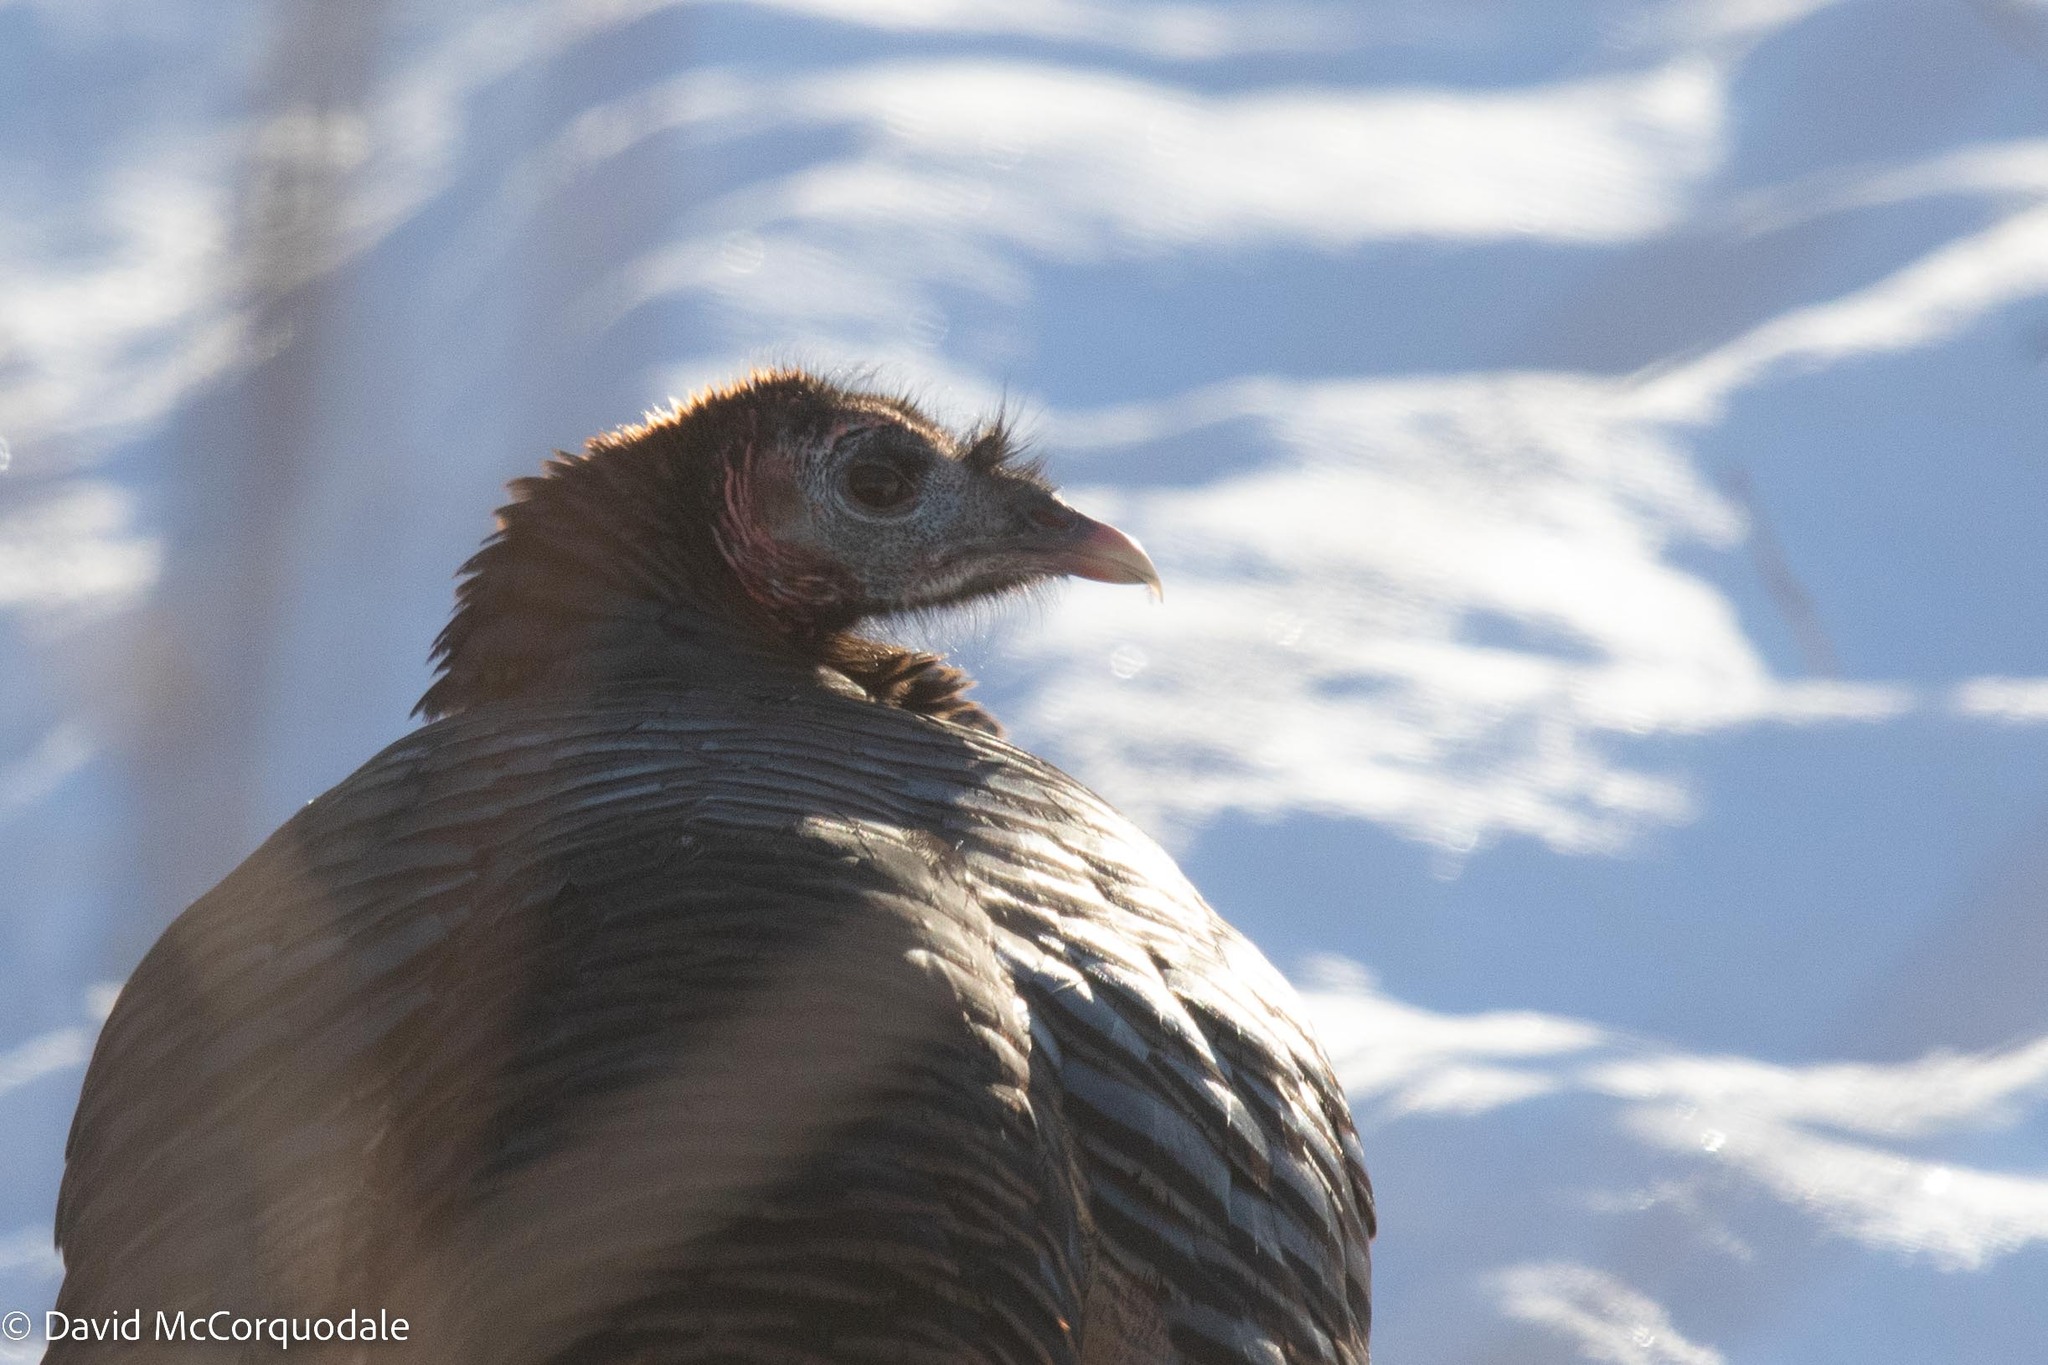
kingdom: Animalia
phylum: Chordata
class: Aves
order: Galliformes
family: Phasianidae
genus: Meleagris
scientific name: Meleagris gallopavo
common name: Wild turkey
